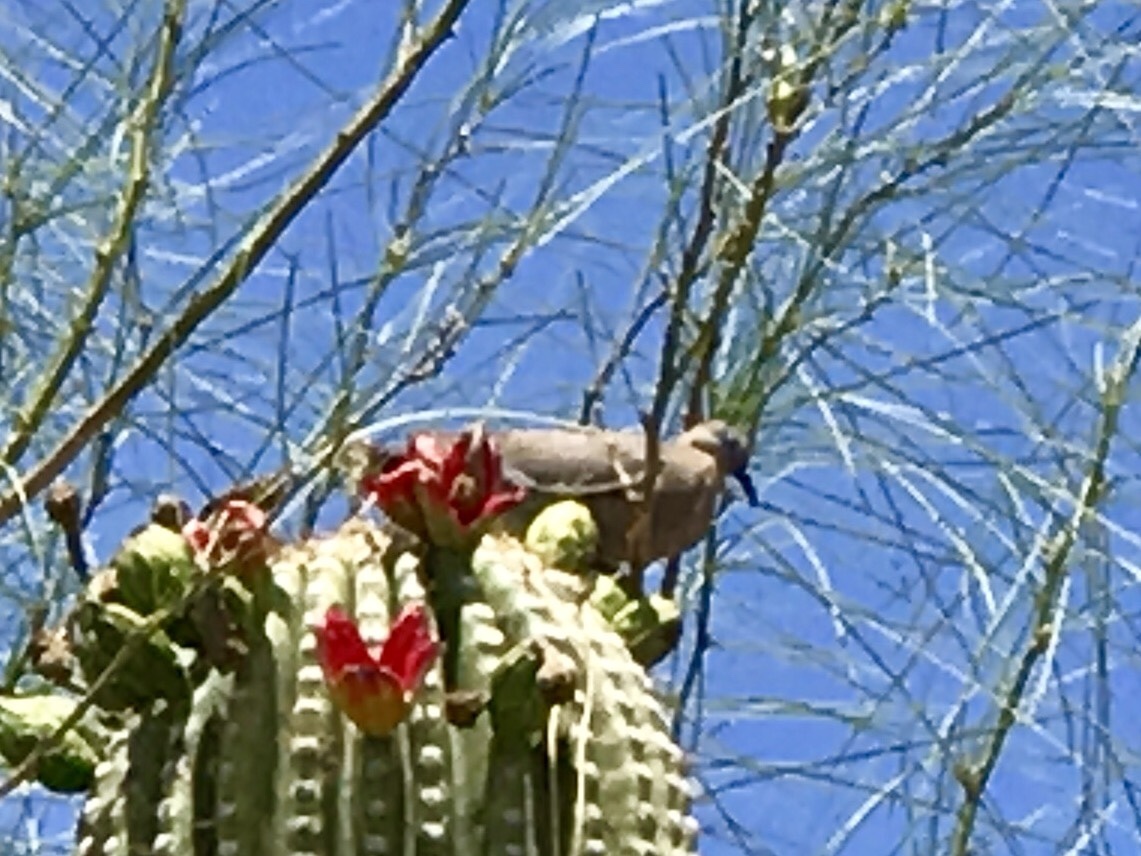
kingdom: Animalia
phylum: Chordata
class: Aves
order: Columbiformes
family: Columbidae
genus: Zenaida
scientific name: Zenaida asiatica
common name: White-winged dove
